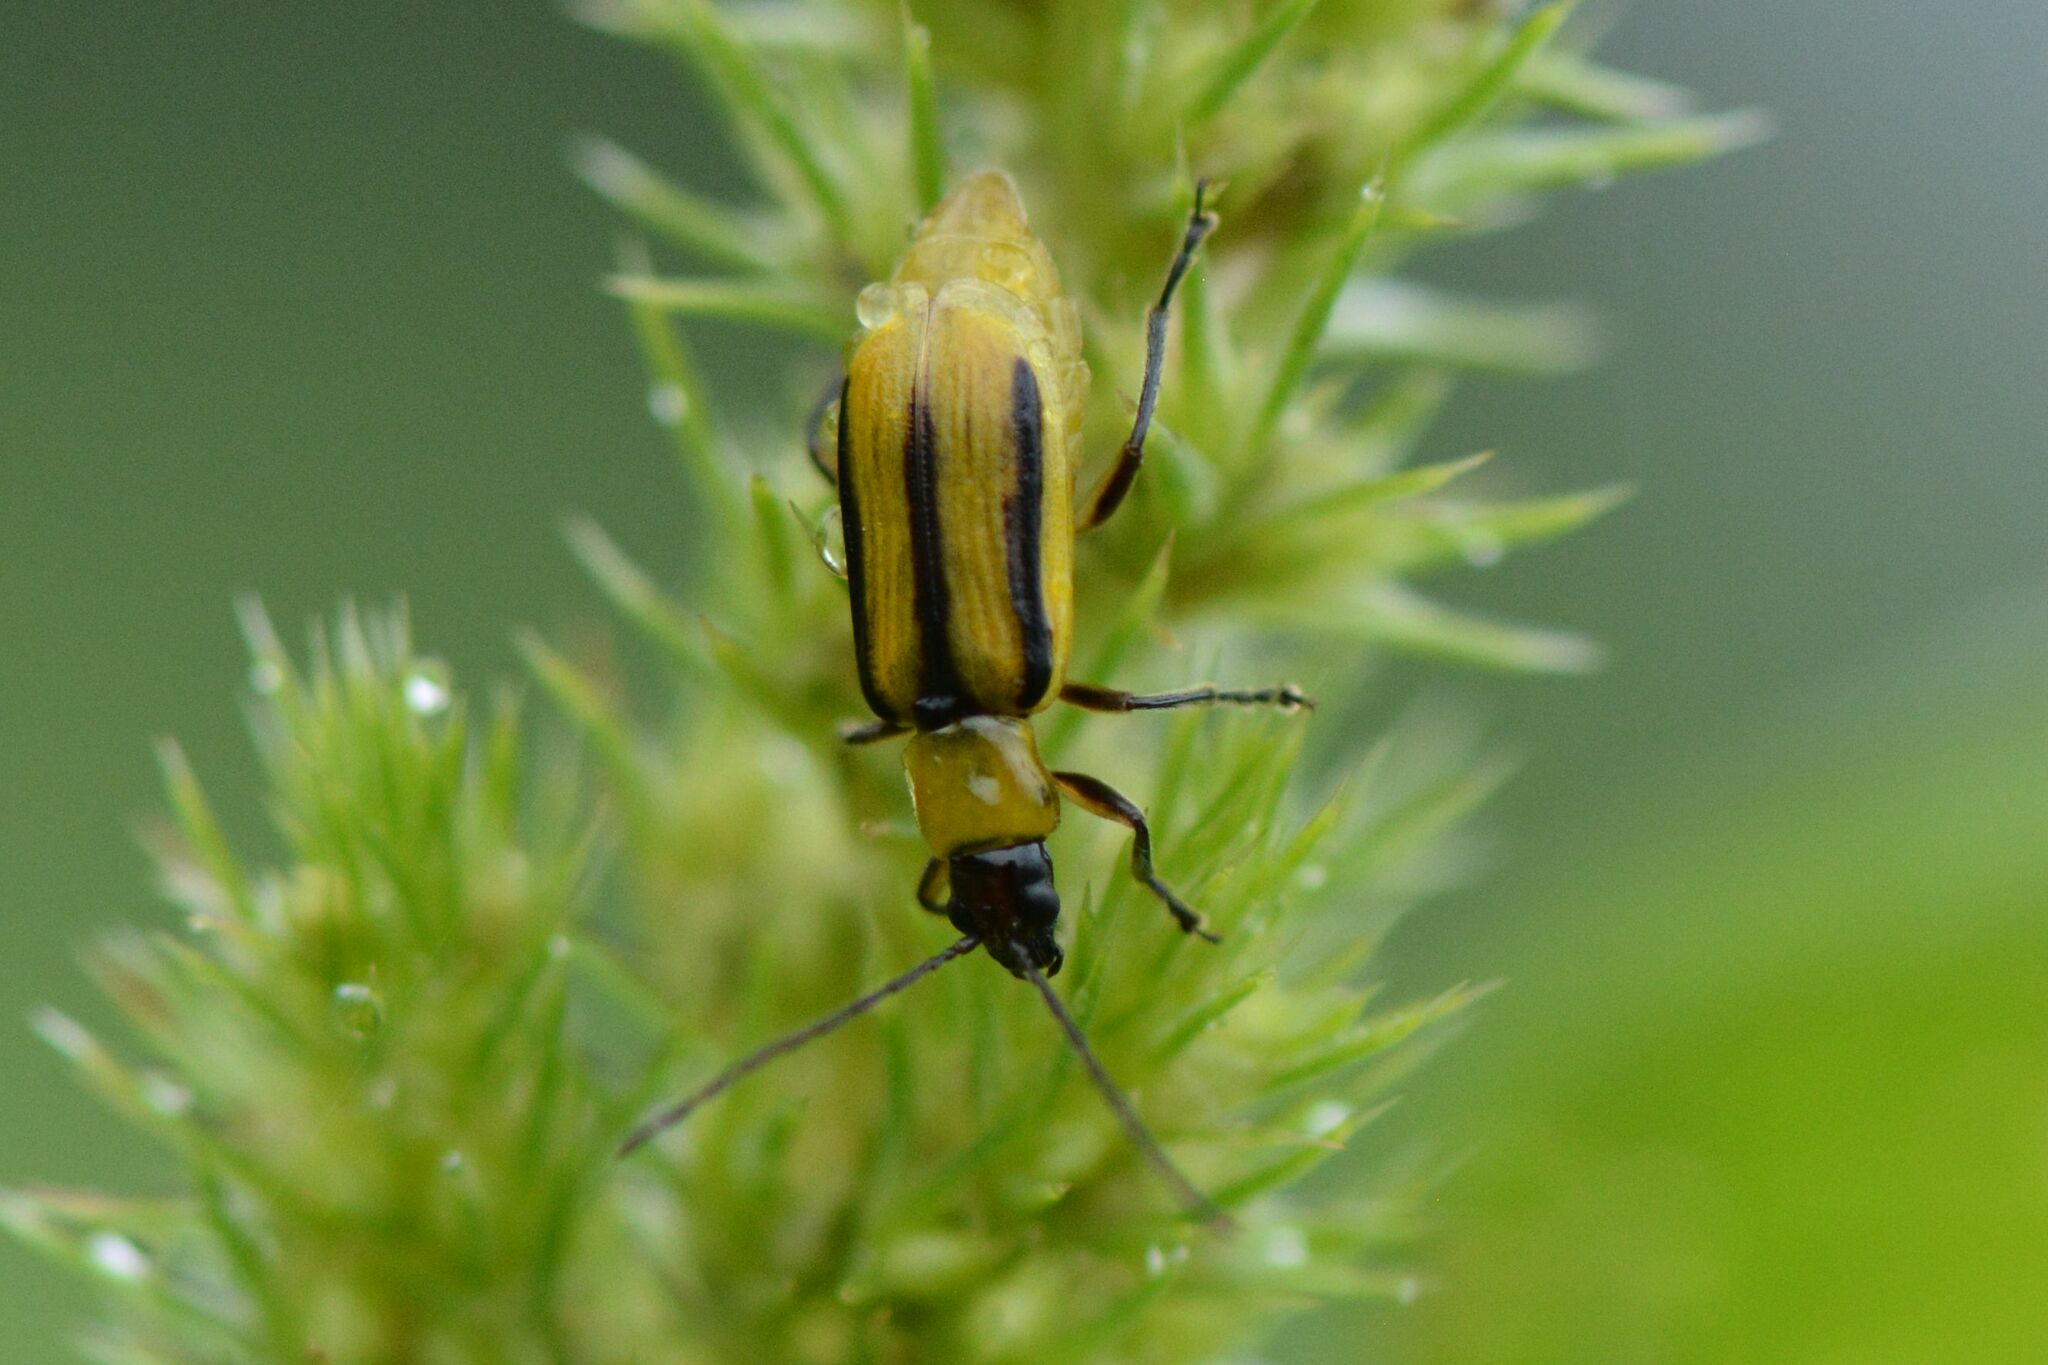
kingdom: Animalia
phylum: Arthropoda
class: Insecta
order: Coleoptera
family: Chrysomelidae
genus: Diabrotica
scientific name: Diabrotica virgifera
